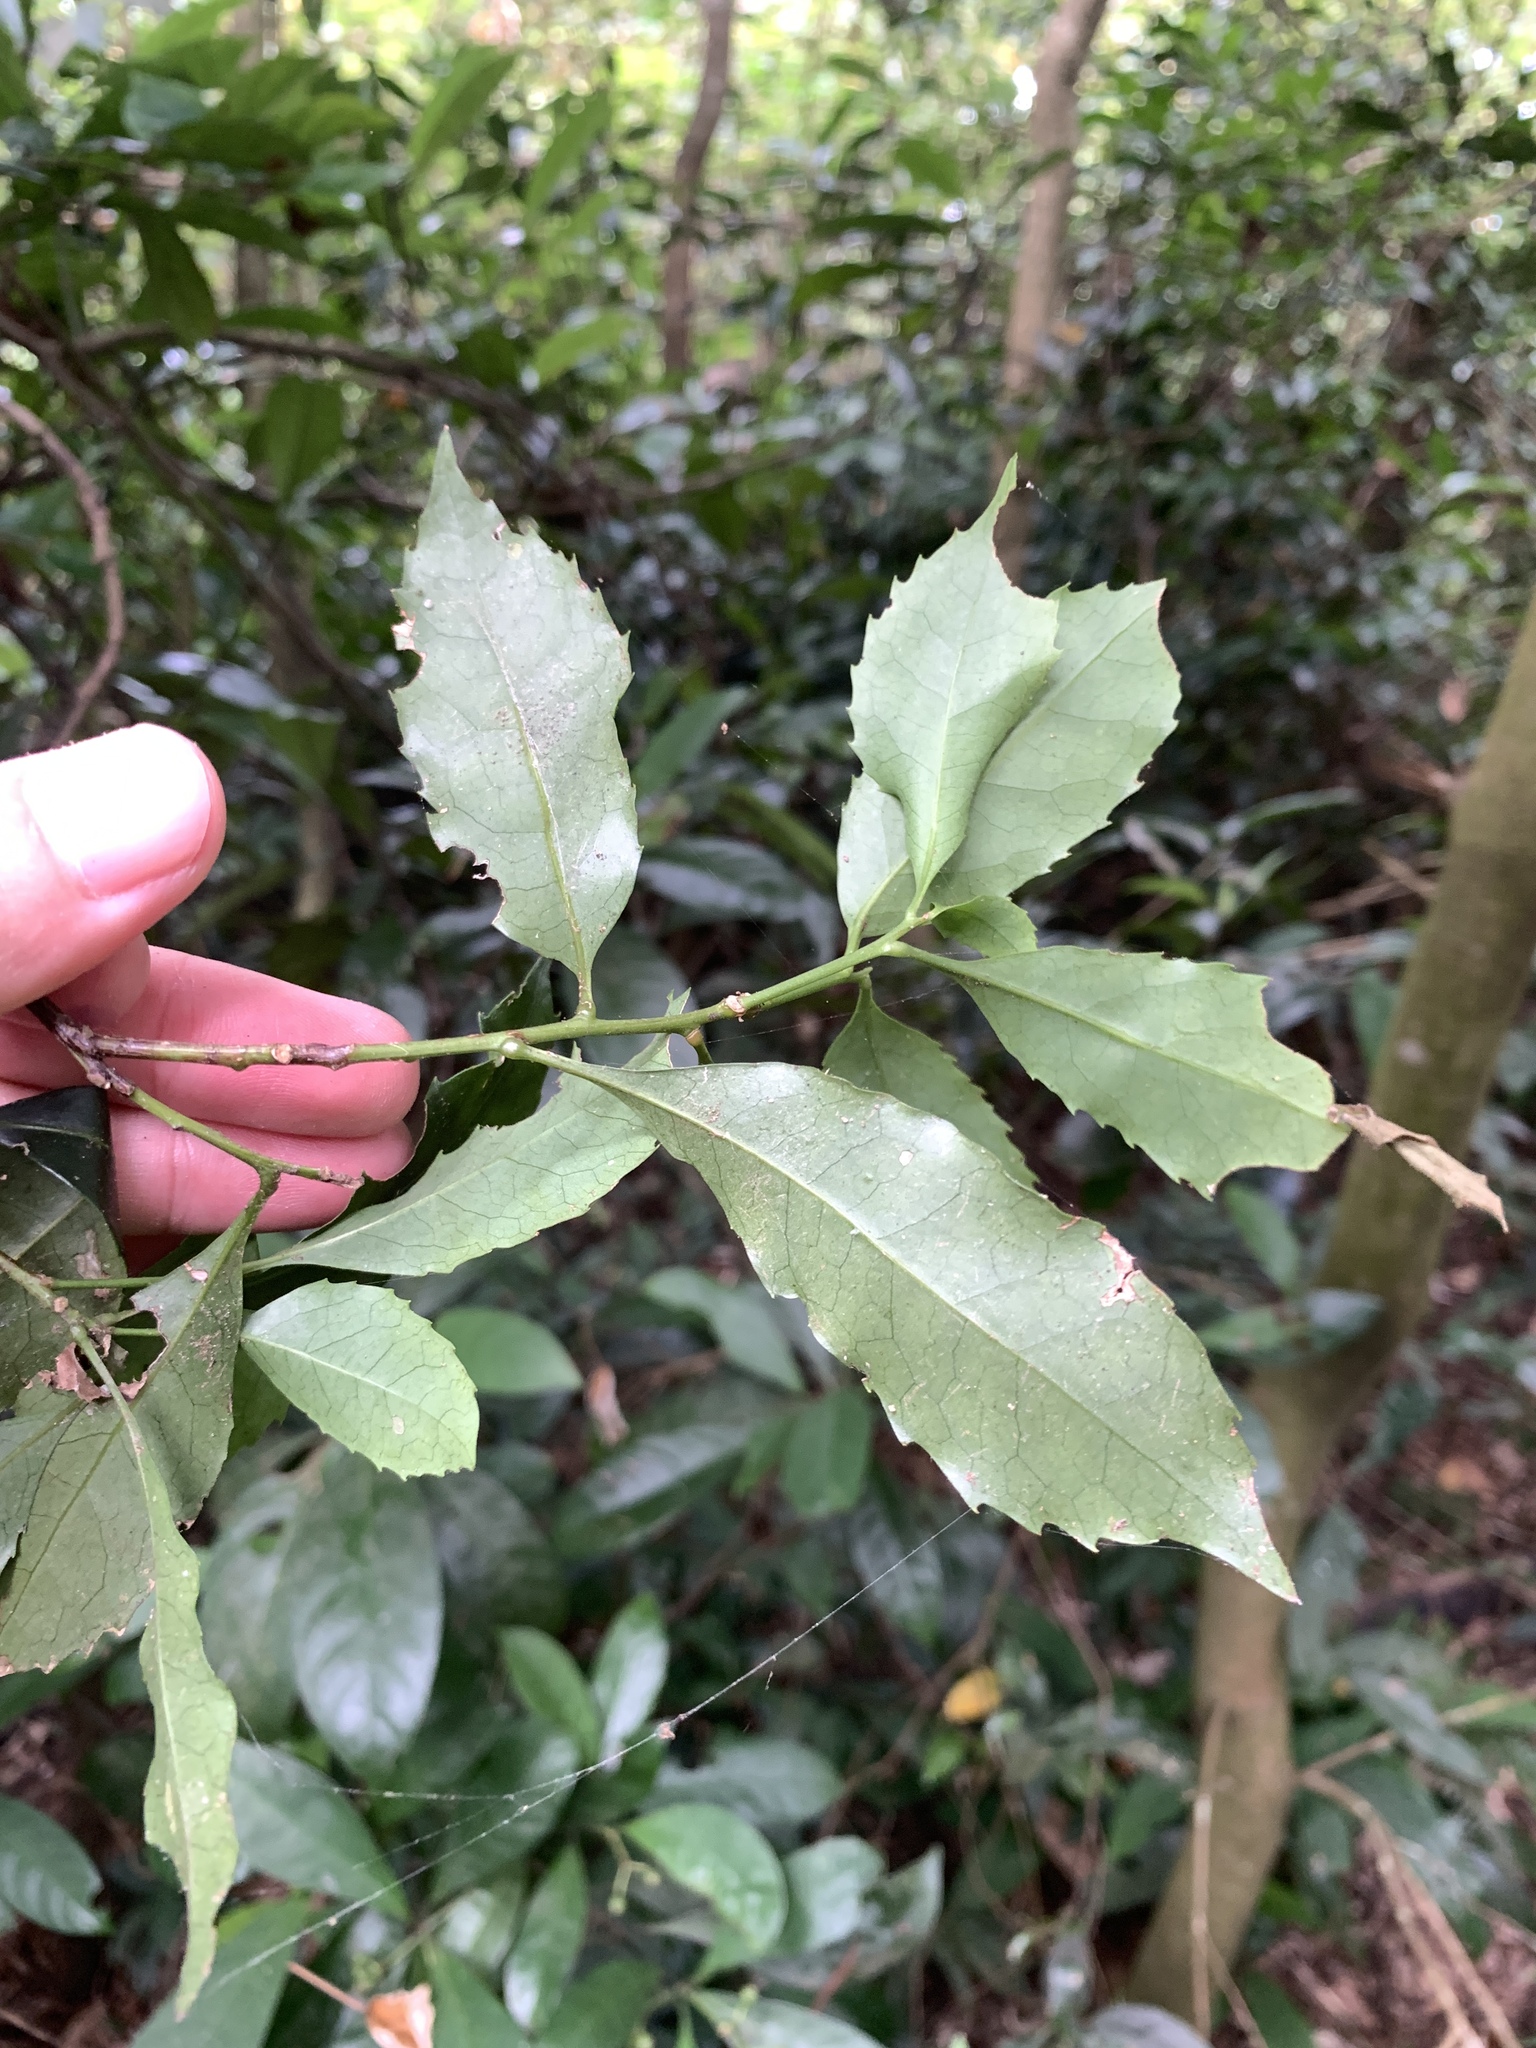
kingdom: Plantae
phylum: Tracheophyta
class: Magnoliopsida
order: Proteales
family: Proteaceae
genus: Helicia
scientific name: Helicia cochinchinensis
